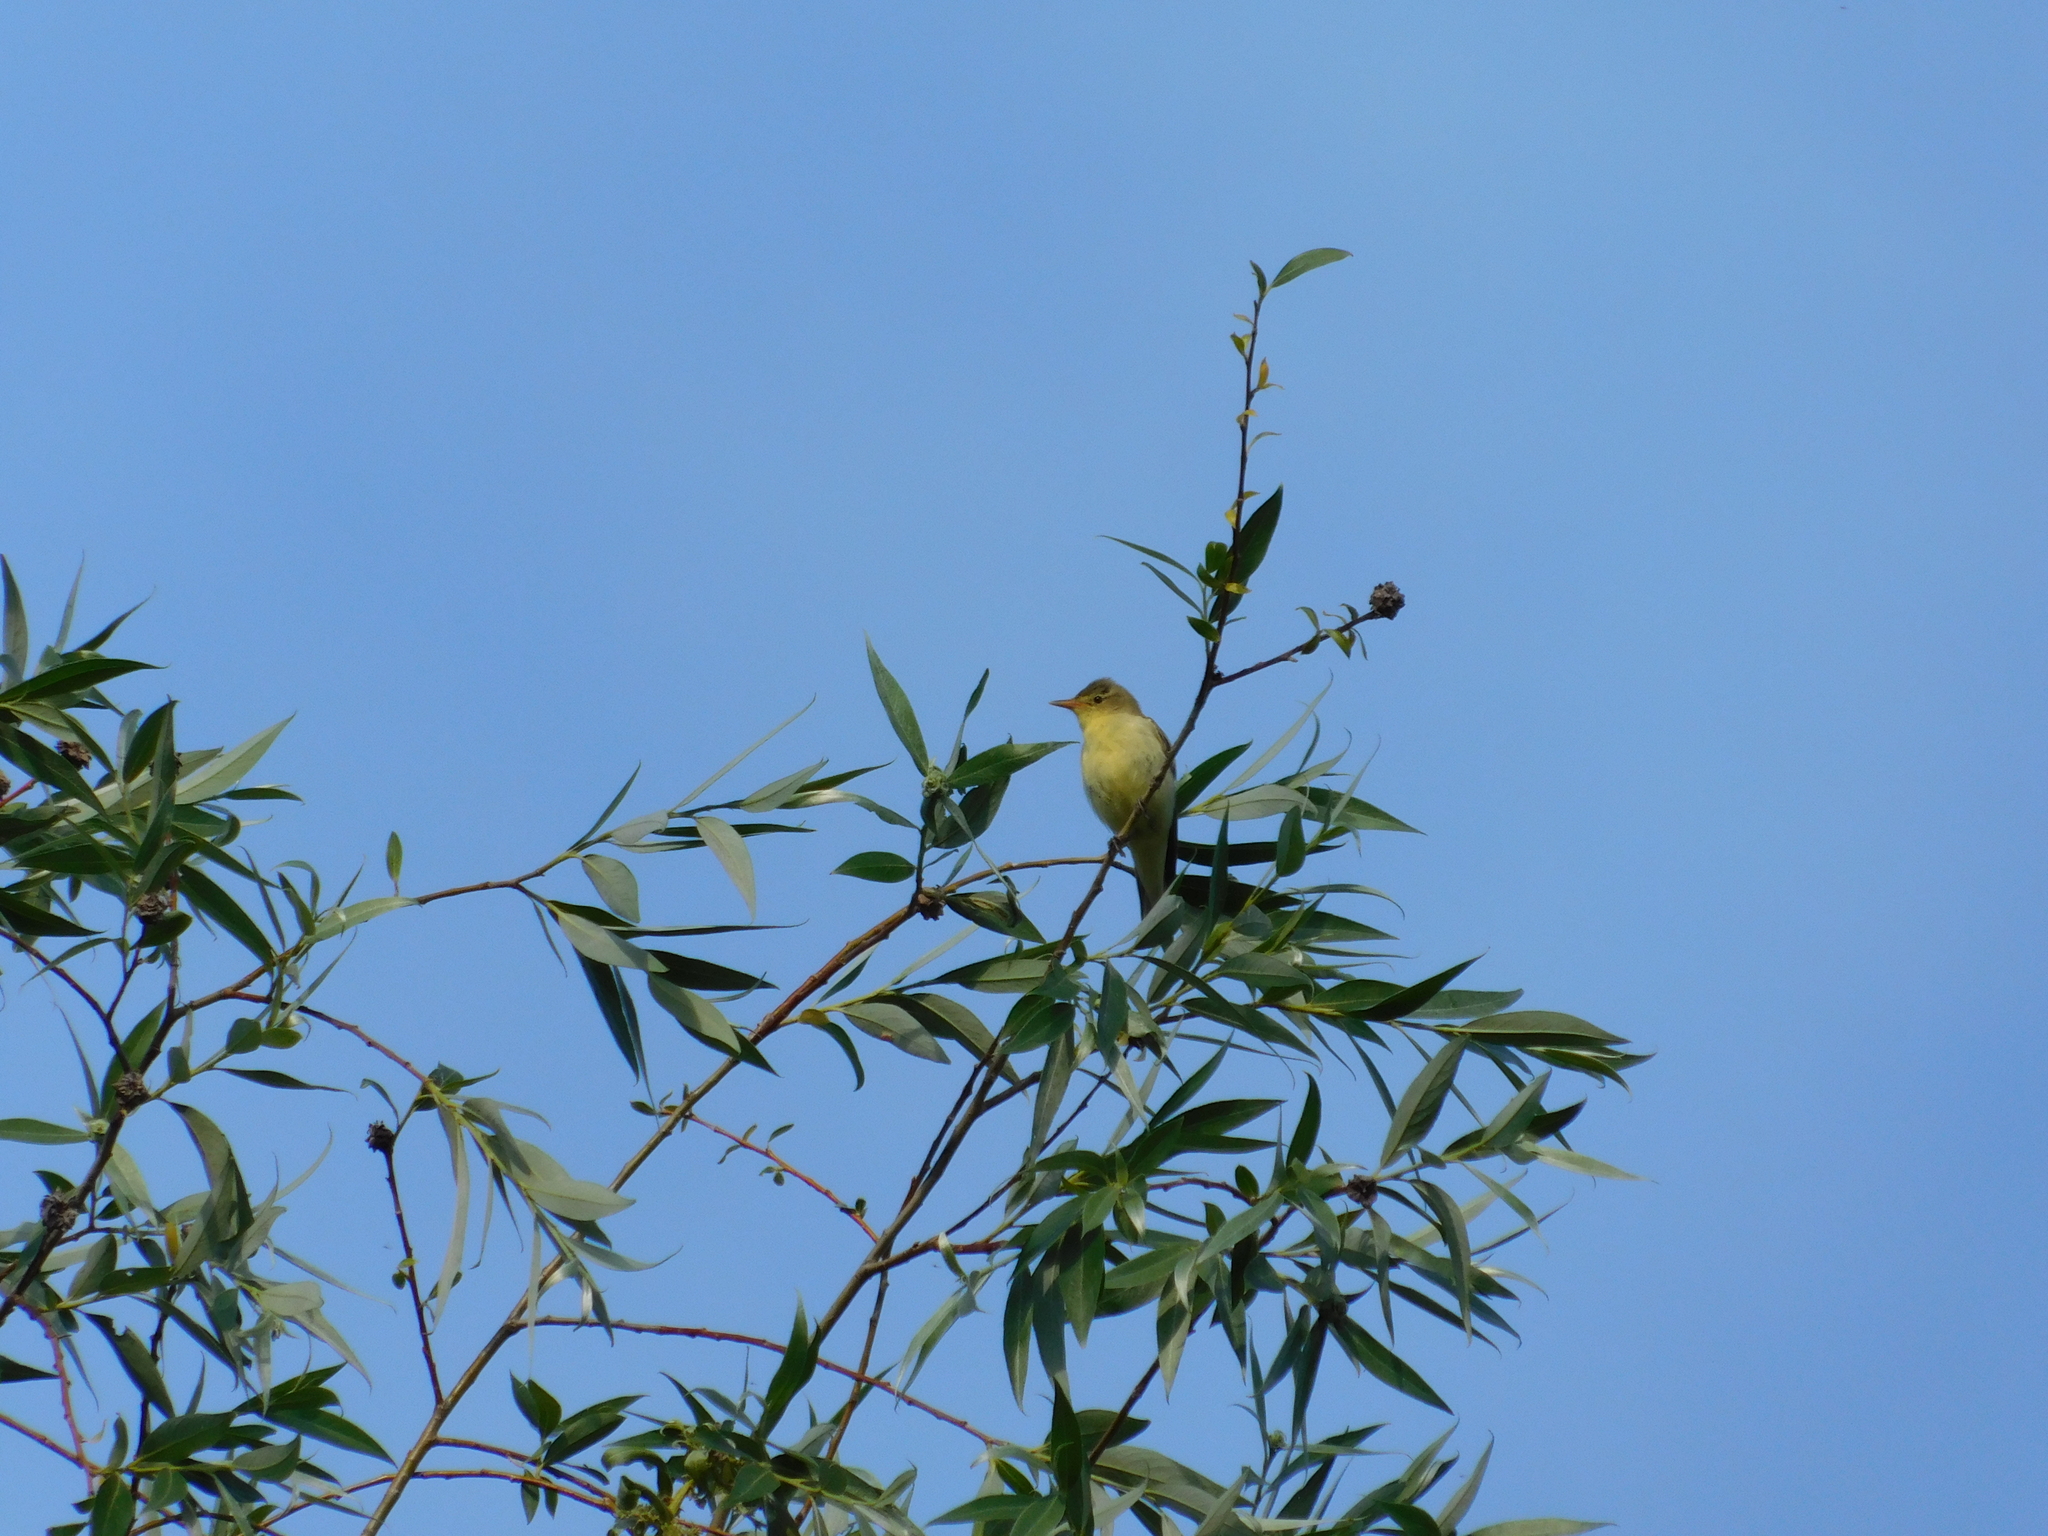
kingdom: Animalia
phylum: Chordata
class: Aves
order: Passeriformes
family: Acrocephalidae
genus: Hippolais
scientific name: Hippolais icterina
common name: Icterine warbler
